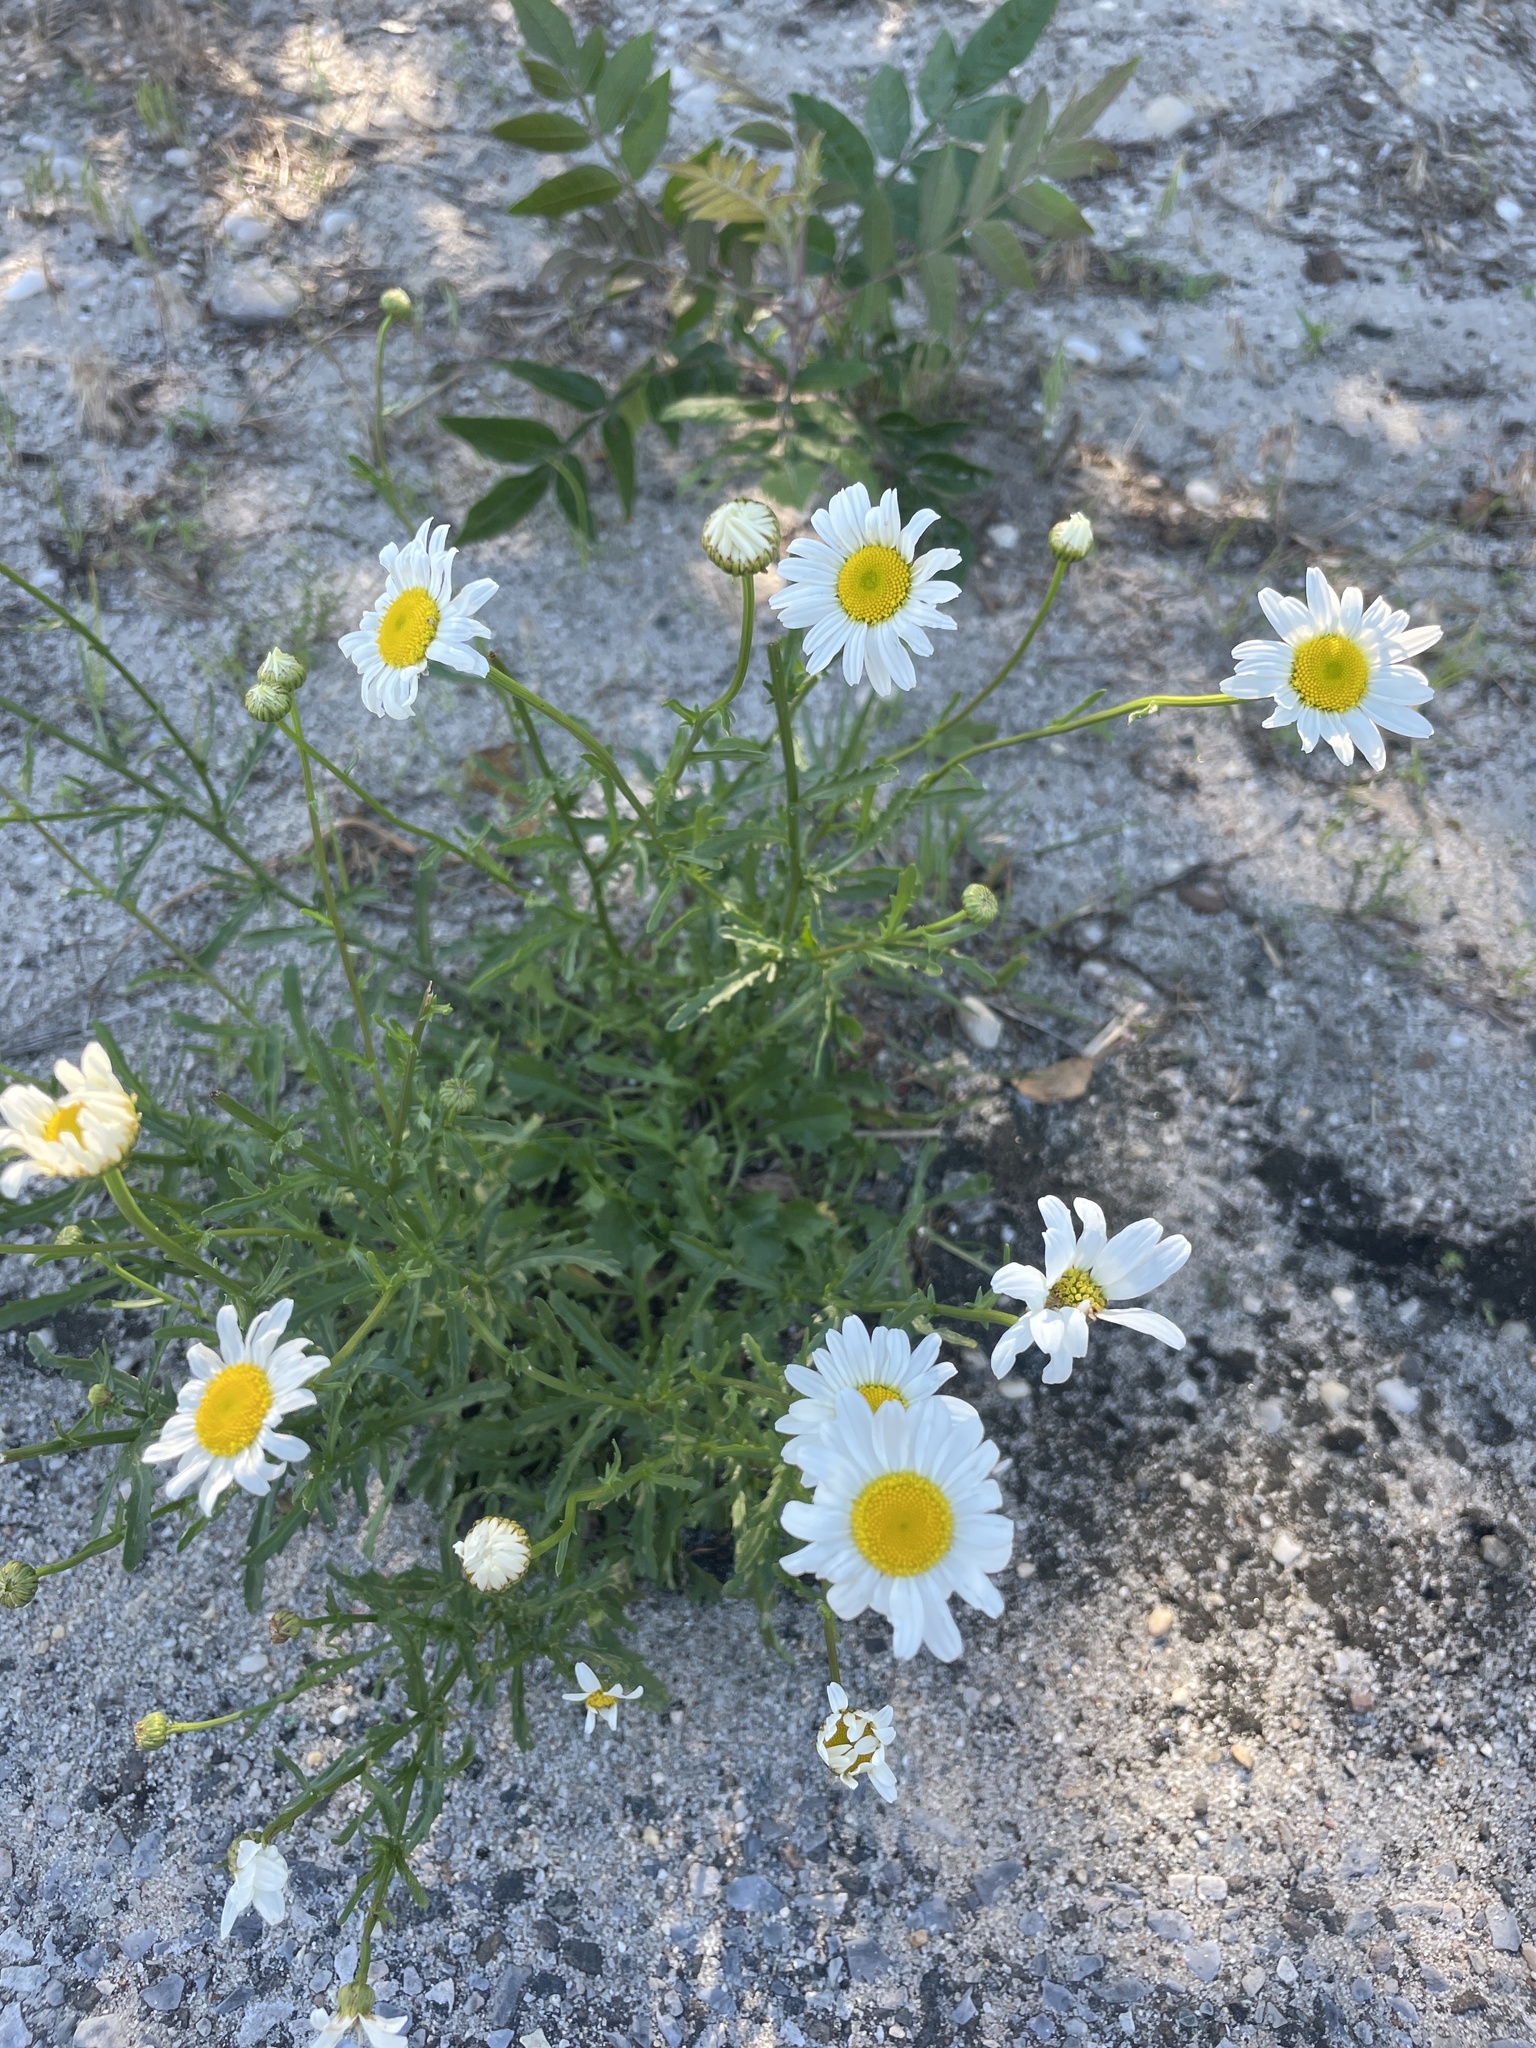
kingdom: Plantae
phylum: Tracheophyta
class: Magnoliopsida
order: Asterales
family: Asteraceae
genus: Leucanthemum
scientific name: Leucanthemum vulgare
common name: Oxeye daisy
